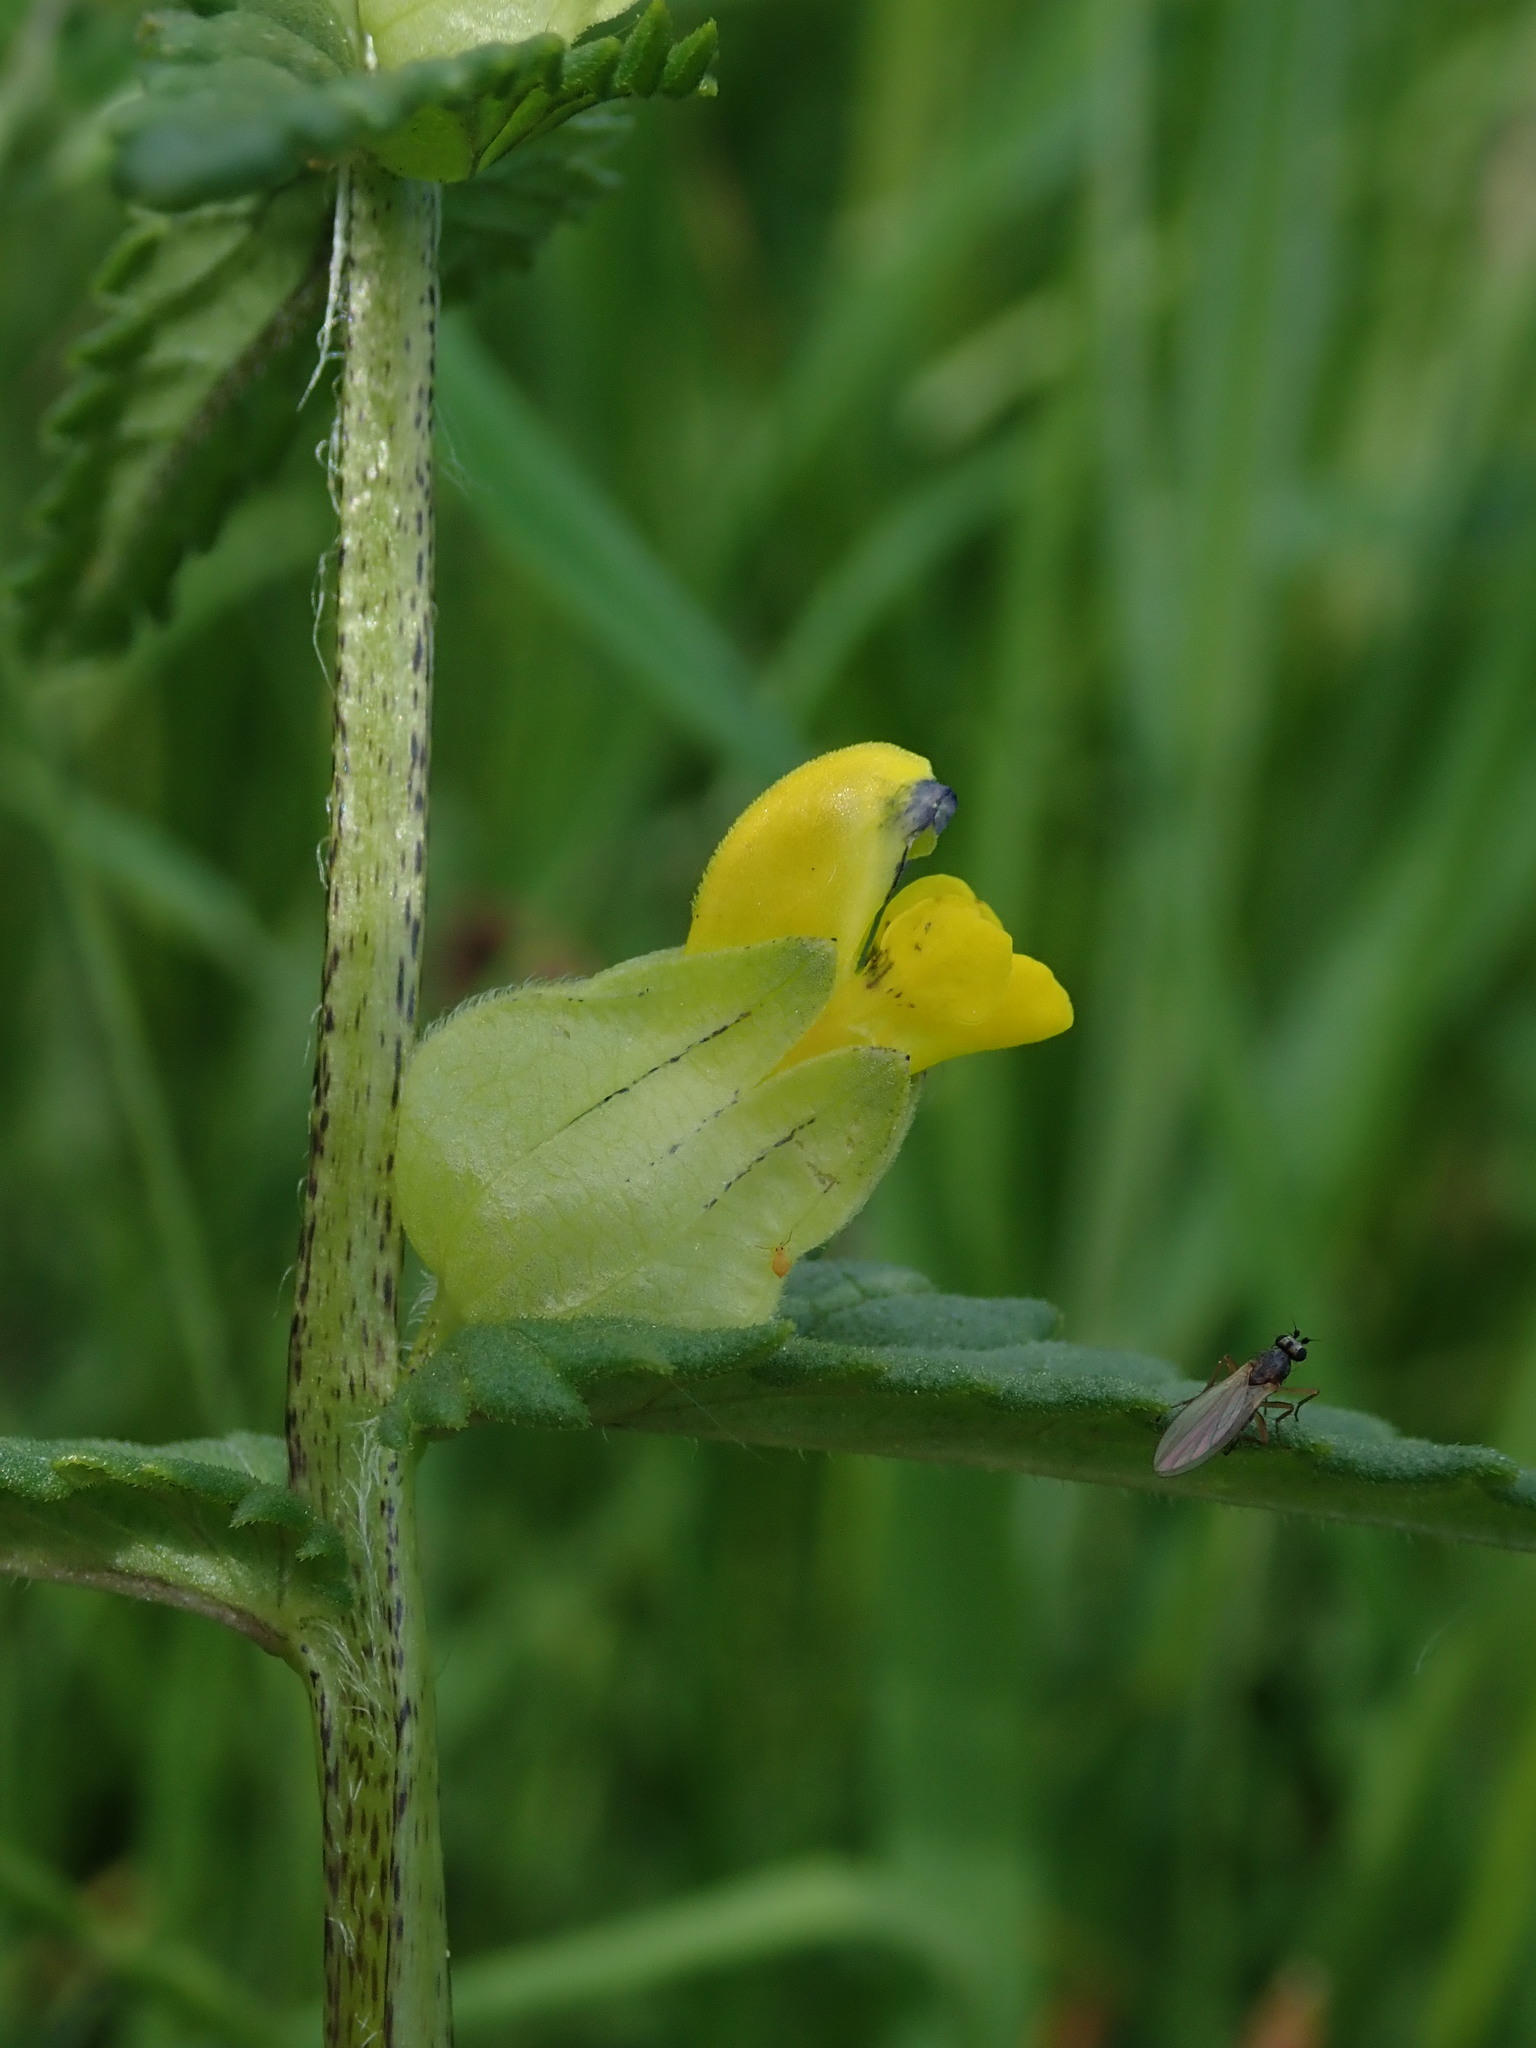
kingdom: Plantae
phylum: Tracheophyta
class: Magnoliopsida
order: Lamiales
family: Orobanchaceae
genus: Rhinanthus
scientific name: Rhinanthus minor
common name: Yellow-rattle
